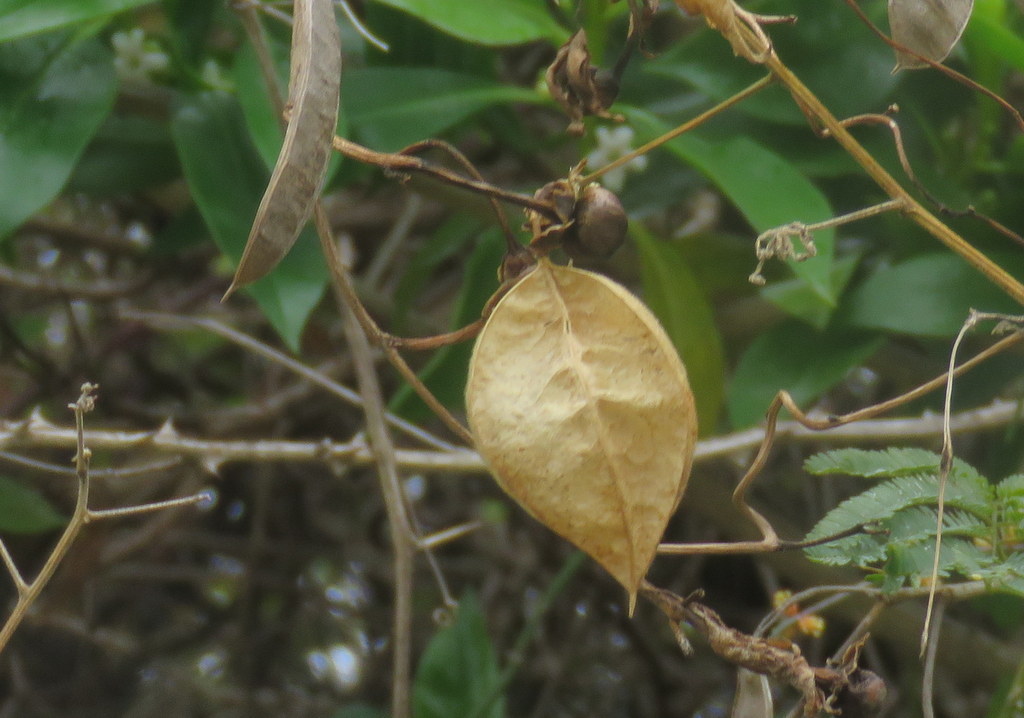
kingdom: Plantae
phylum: Tracheophyta
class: Magnoliopsida
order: Sapindales
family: Sapindaceae
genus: Cardiospermum
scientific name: Cardiospermum grandiflorum
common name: Balloon vine
